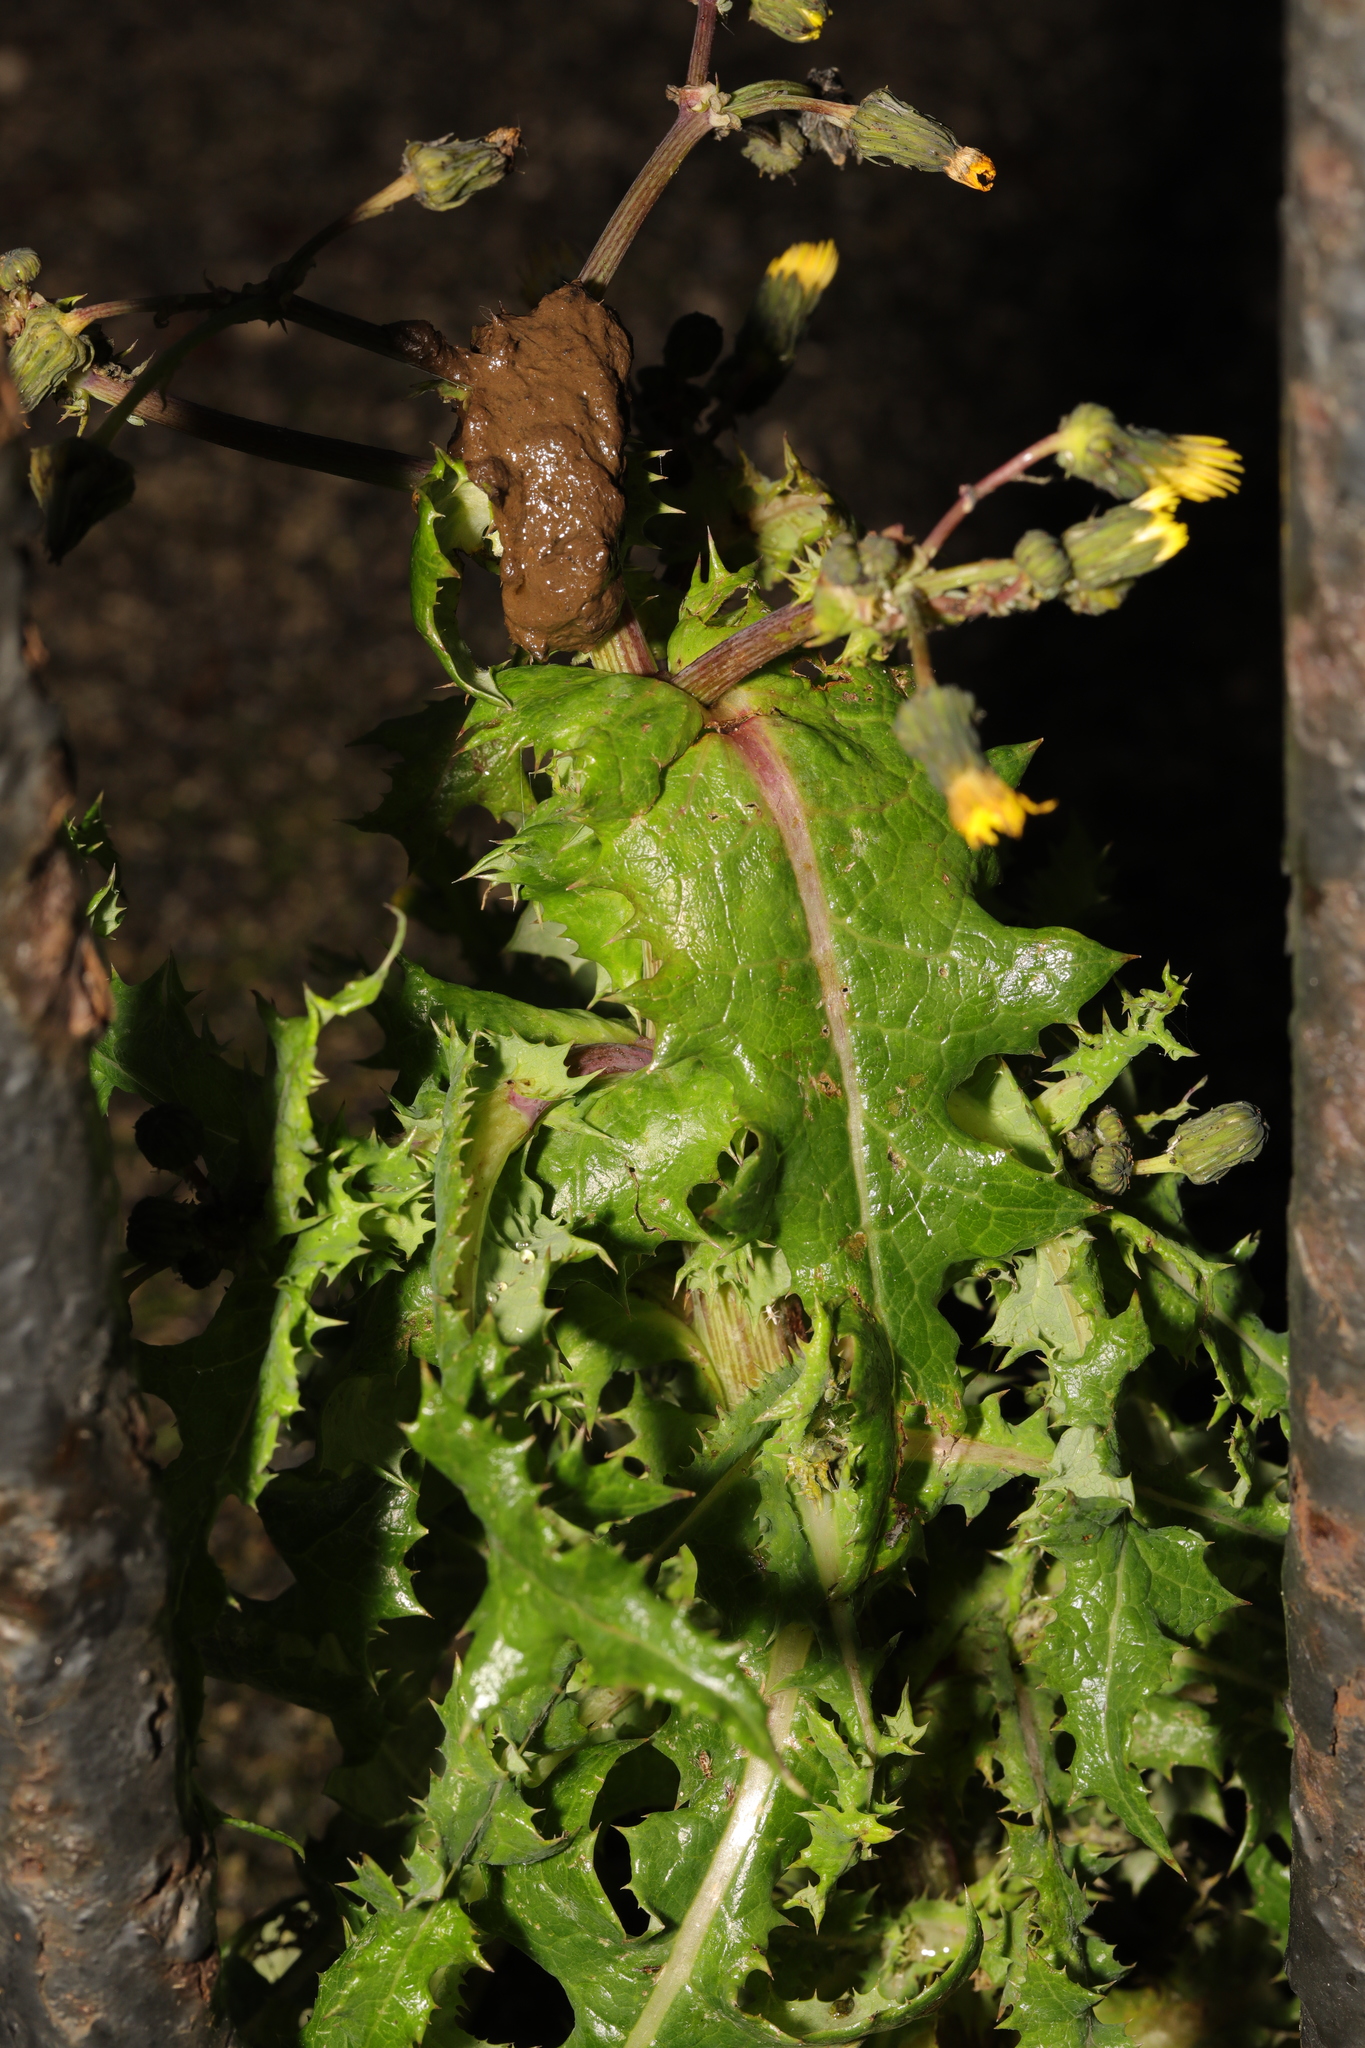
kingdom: Plantae
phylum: Tracheophyta
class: Magnoliopsida
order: Asterales
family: Asteraceae
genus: Sonchus
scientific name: Sonchus asper
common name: Prickly sow-thistle
